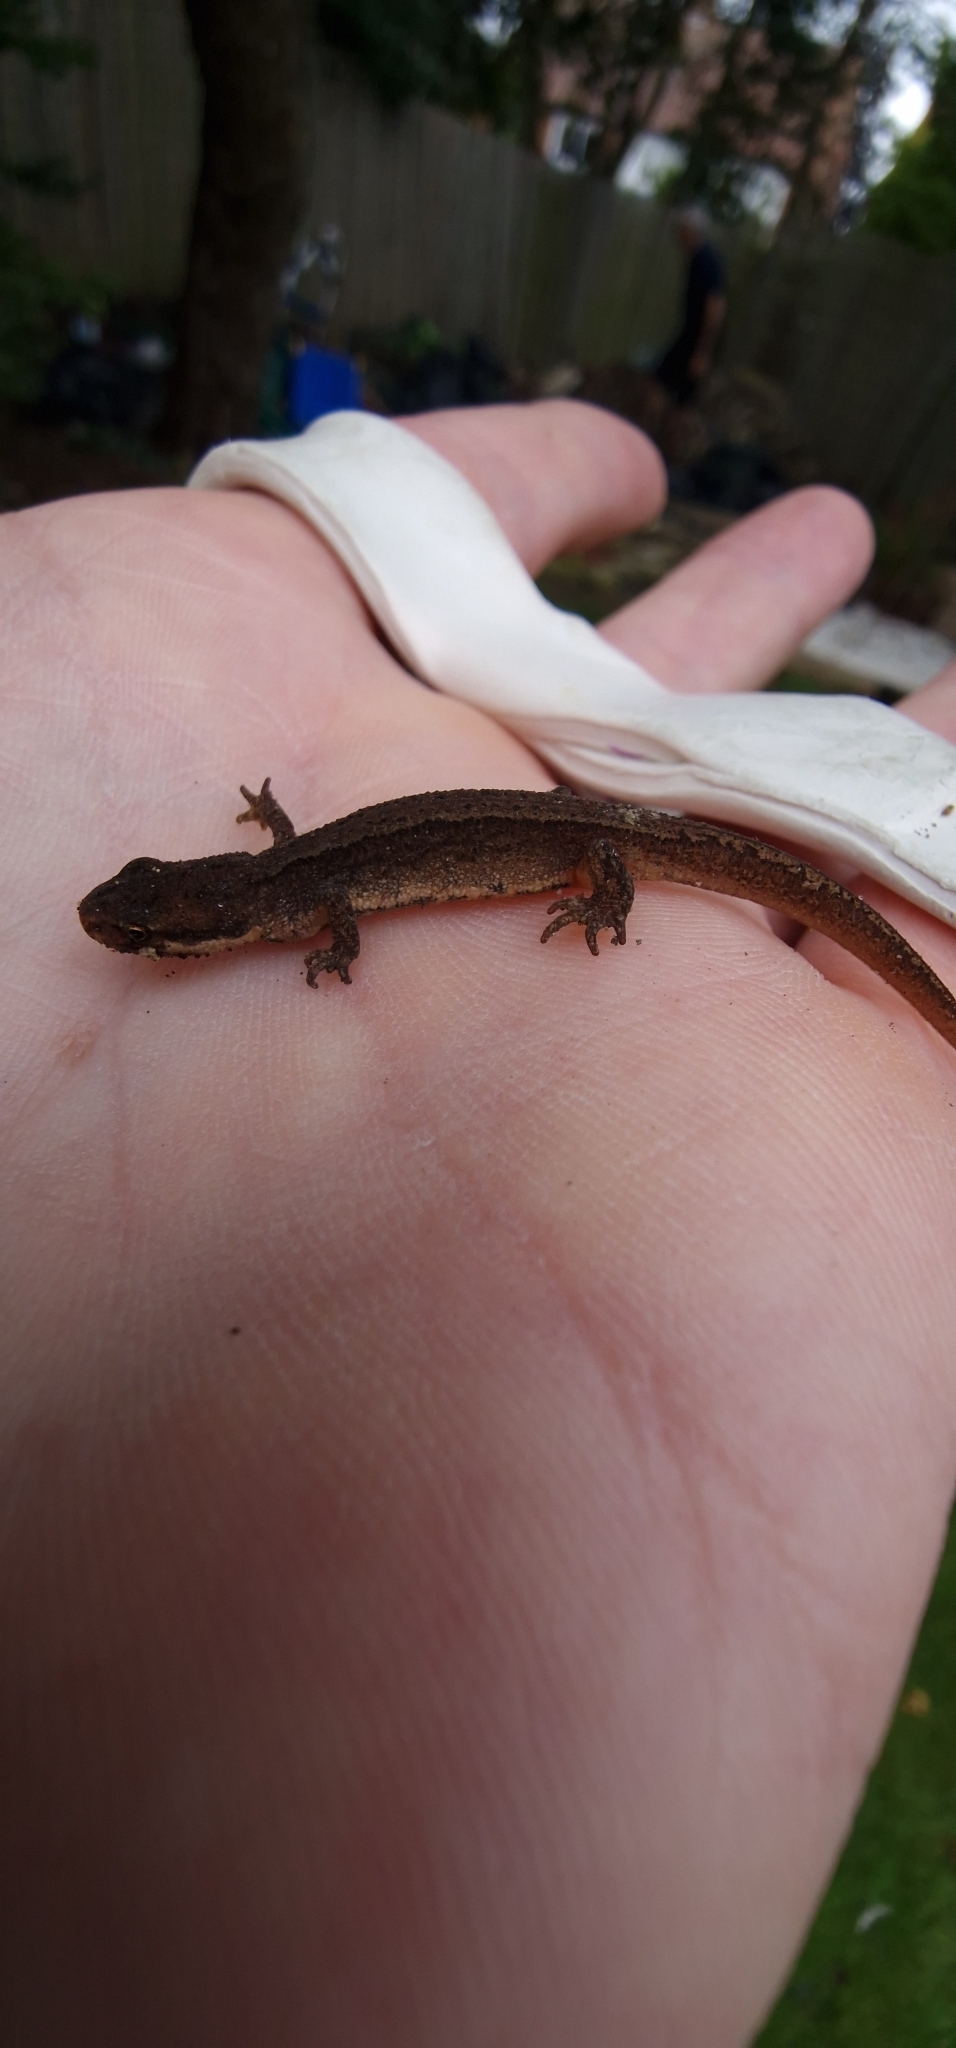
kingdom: Animalia
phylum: Chordata
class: Amphibia
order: Caudata
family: Salamandridae
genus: Lissotriton
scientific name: Lissotriton vulgaris
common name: Smooth newt
